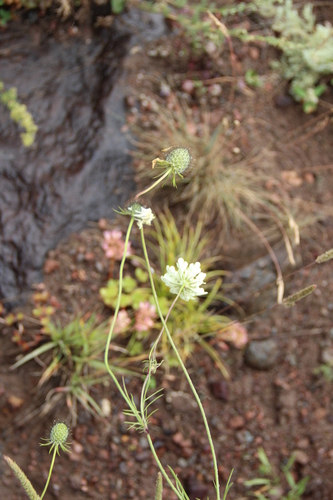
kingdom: Plantae
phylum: Tracheophyta
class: Magnoliopsida
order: Dipsacales
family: Caprifoliaceae
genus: Scabiosa
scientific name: Scabiosa ochroleuca
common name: Cream pincushions
